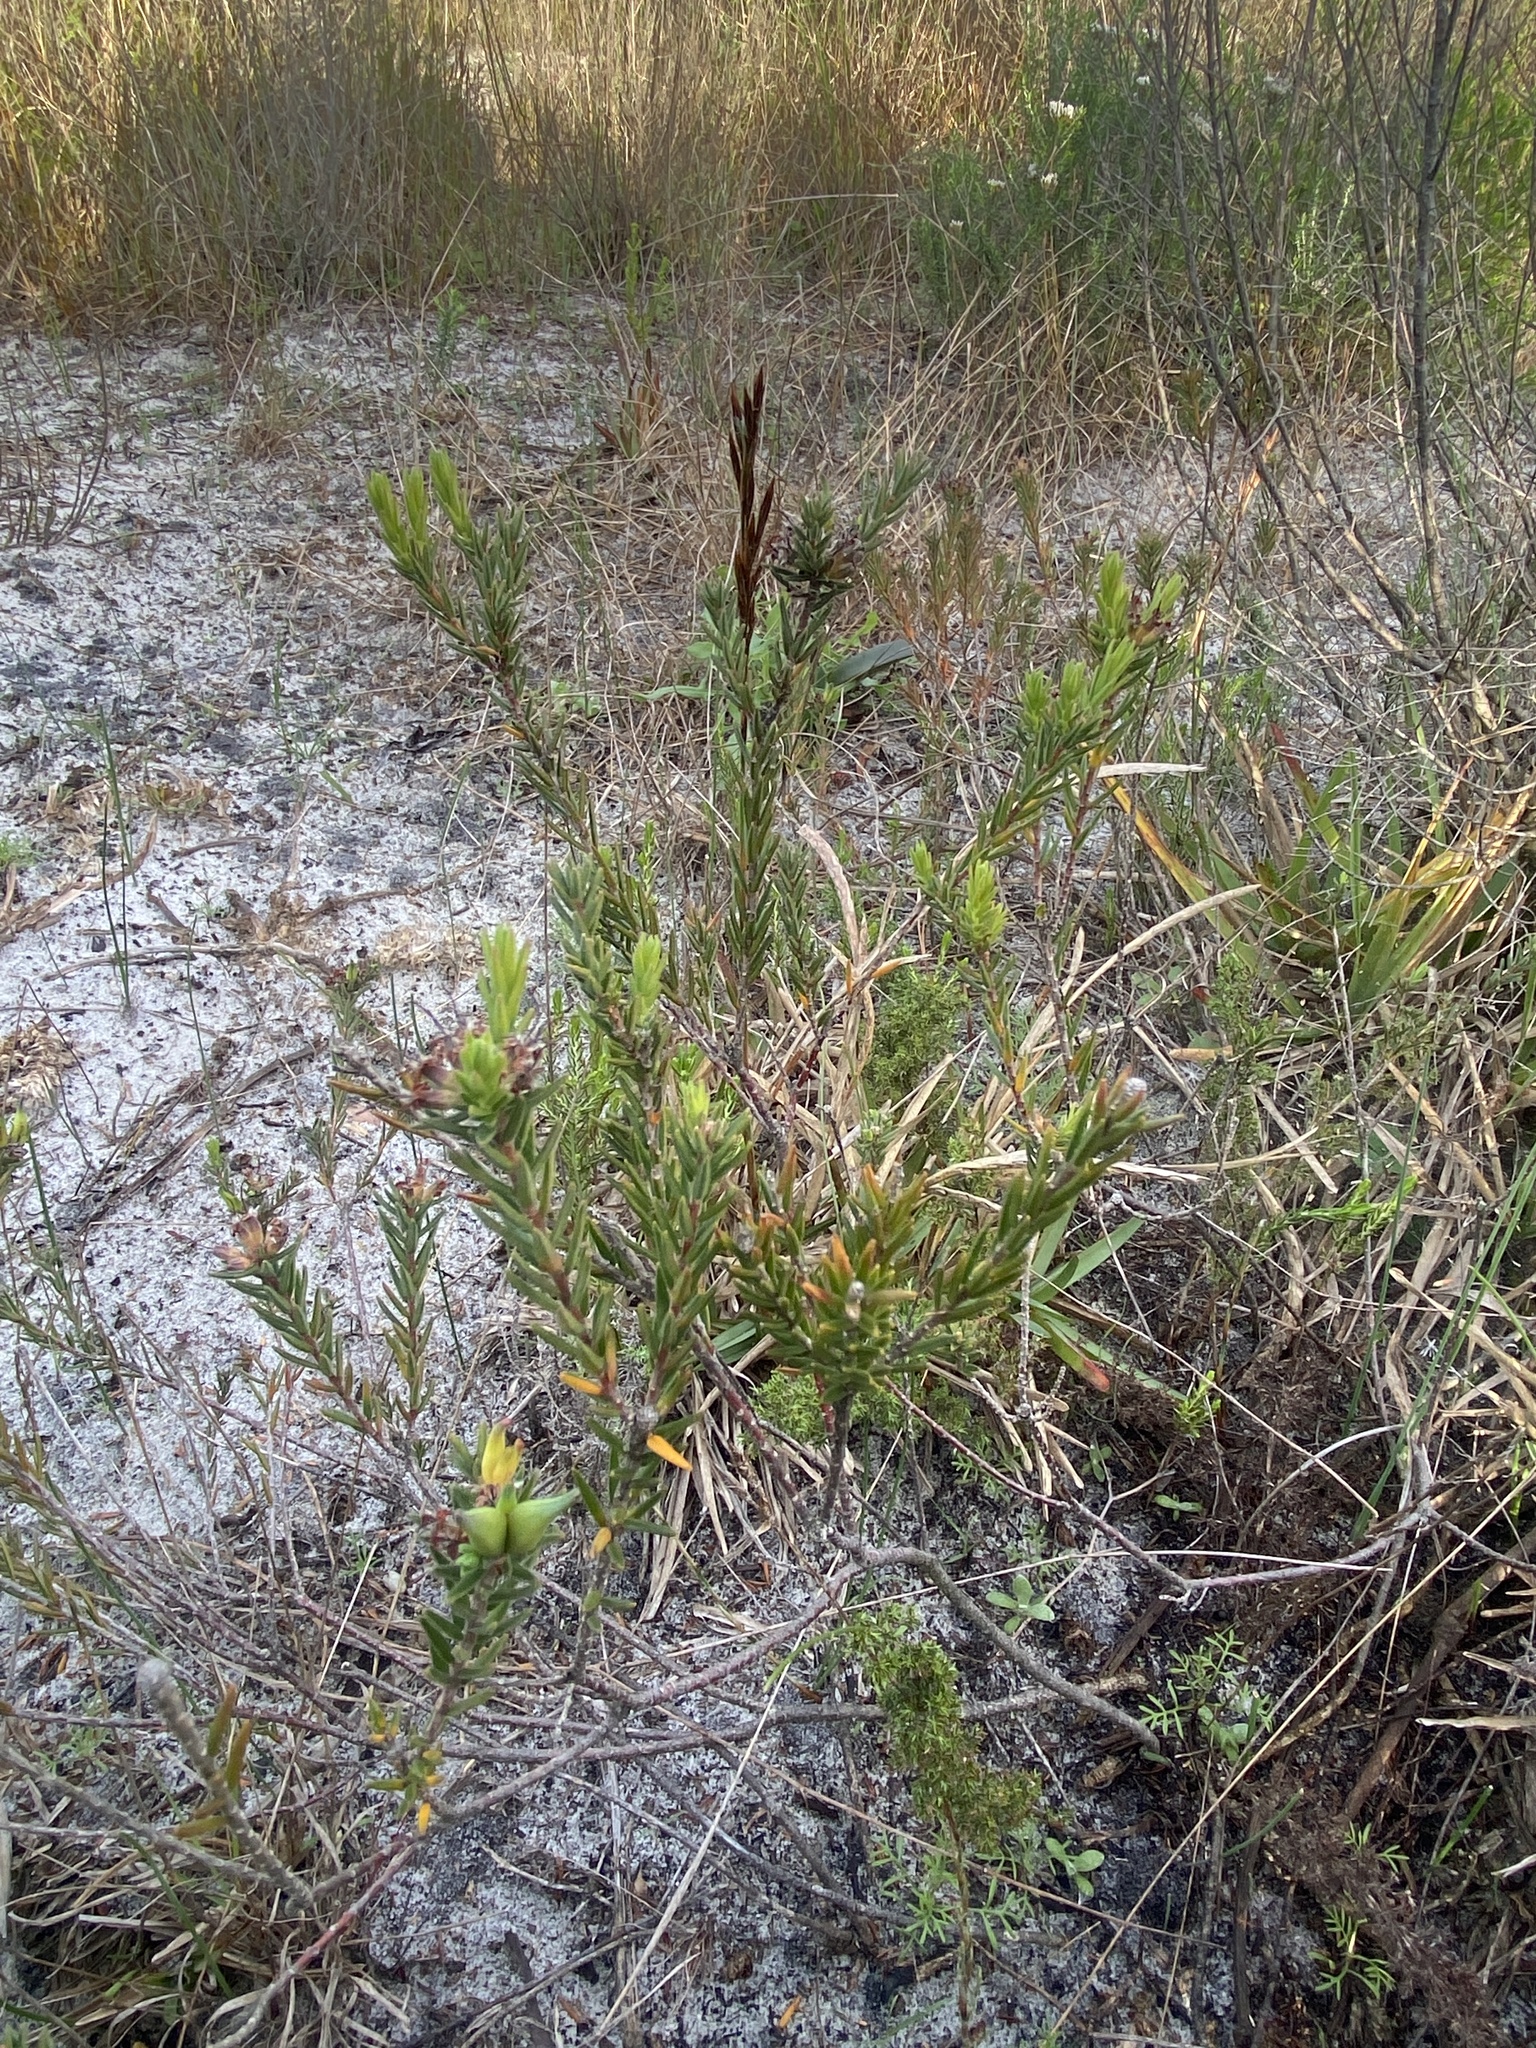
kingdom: Plantae
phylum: Tracheophyta
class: Magnoliopsida
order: Sapindales
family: Rutaceae
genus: Macrostylis
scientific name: Macrostylis villosa
